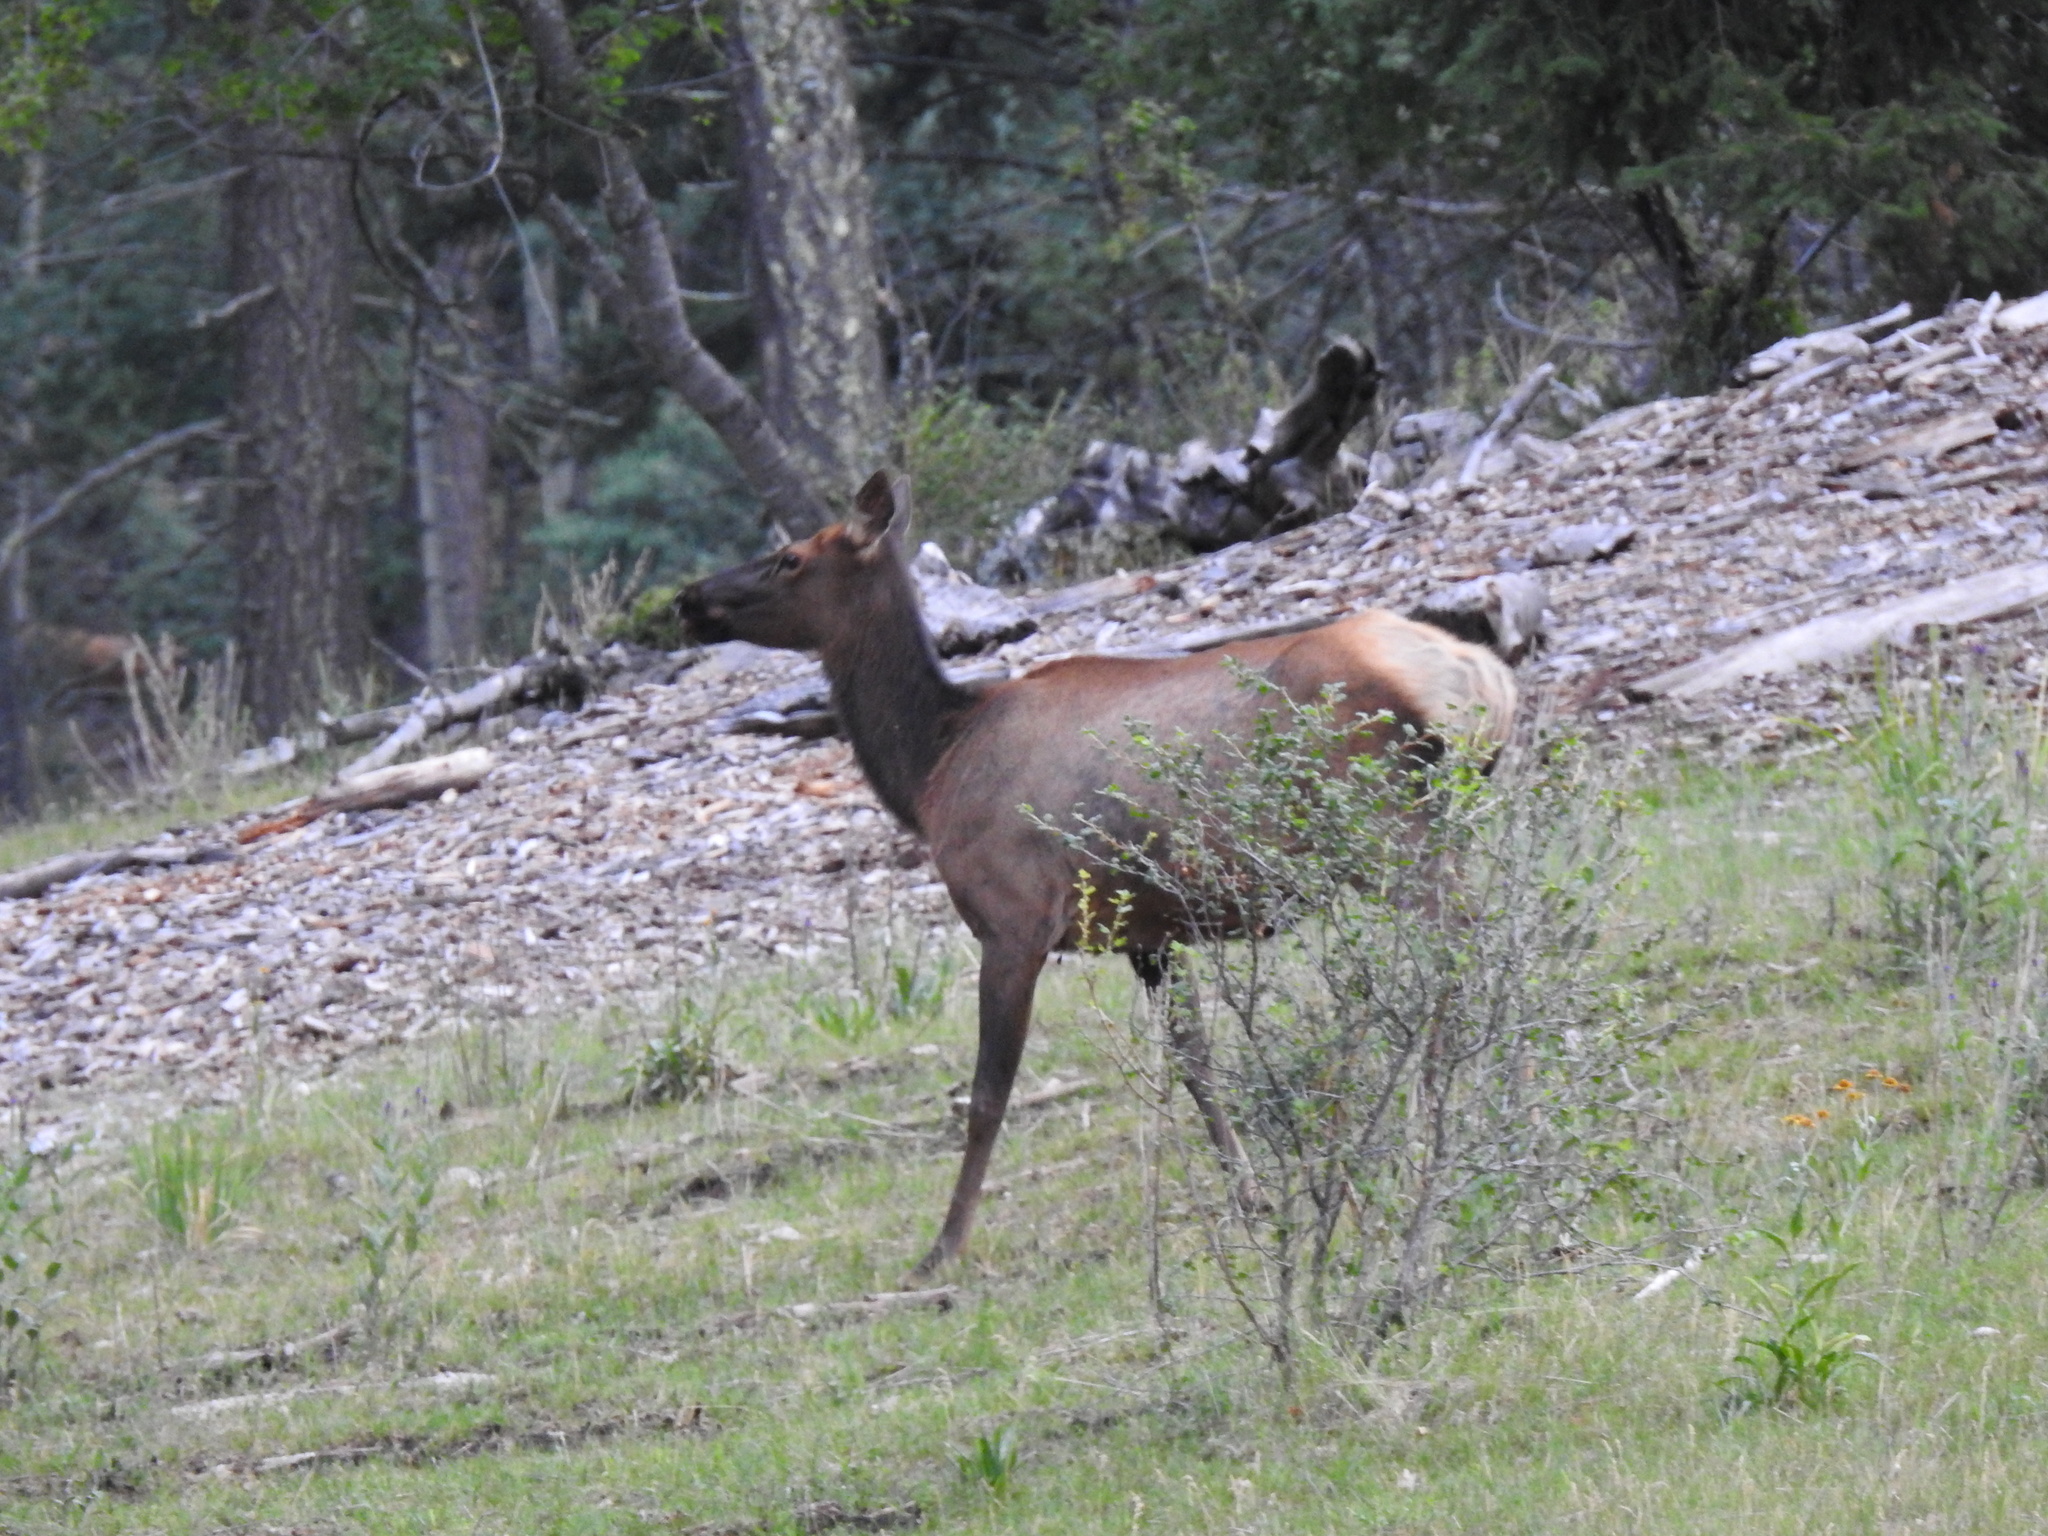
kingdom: Animalia
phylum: Chordata
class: Mammalia
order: Artiodactyla
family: Cervidae
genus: Cervus
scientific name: Cervus elaphus
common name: Red deer
